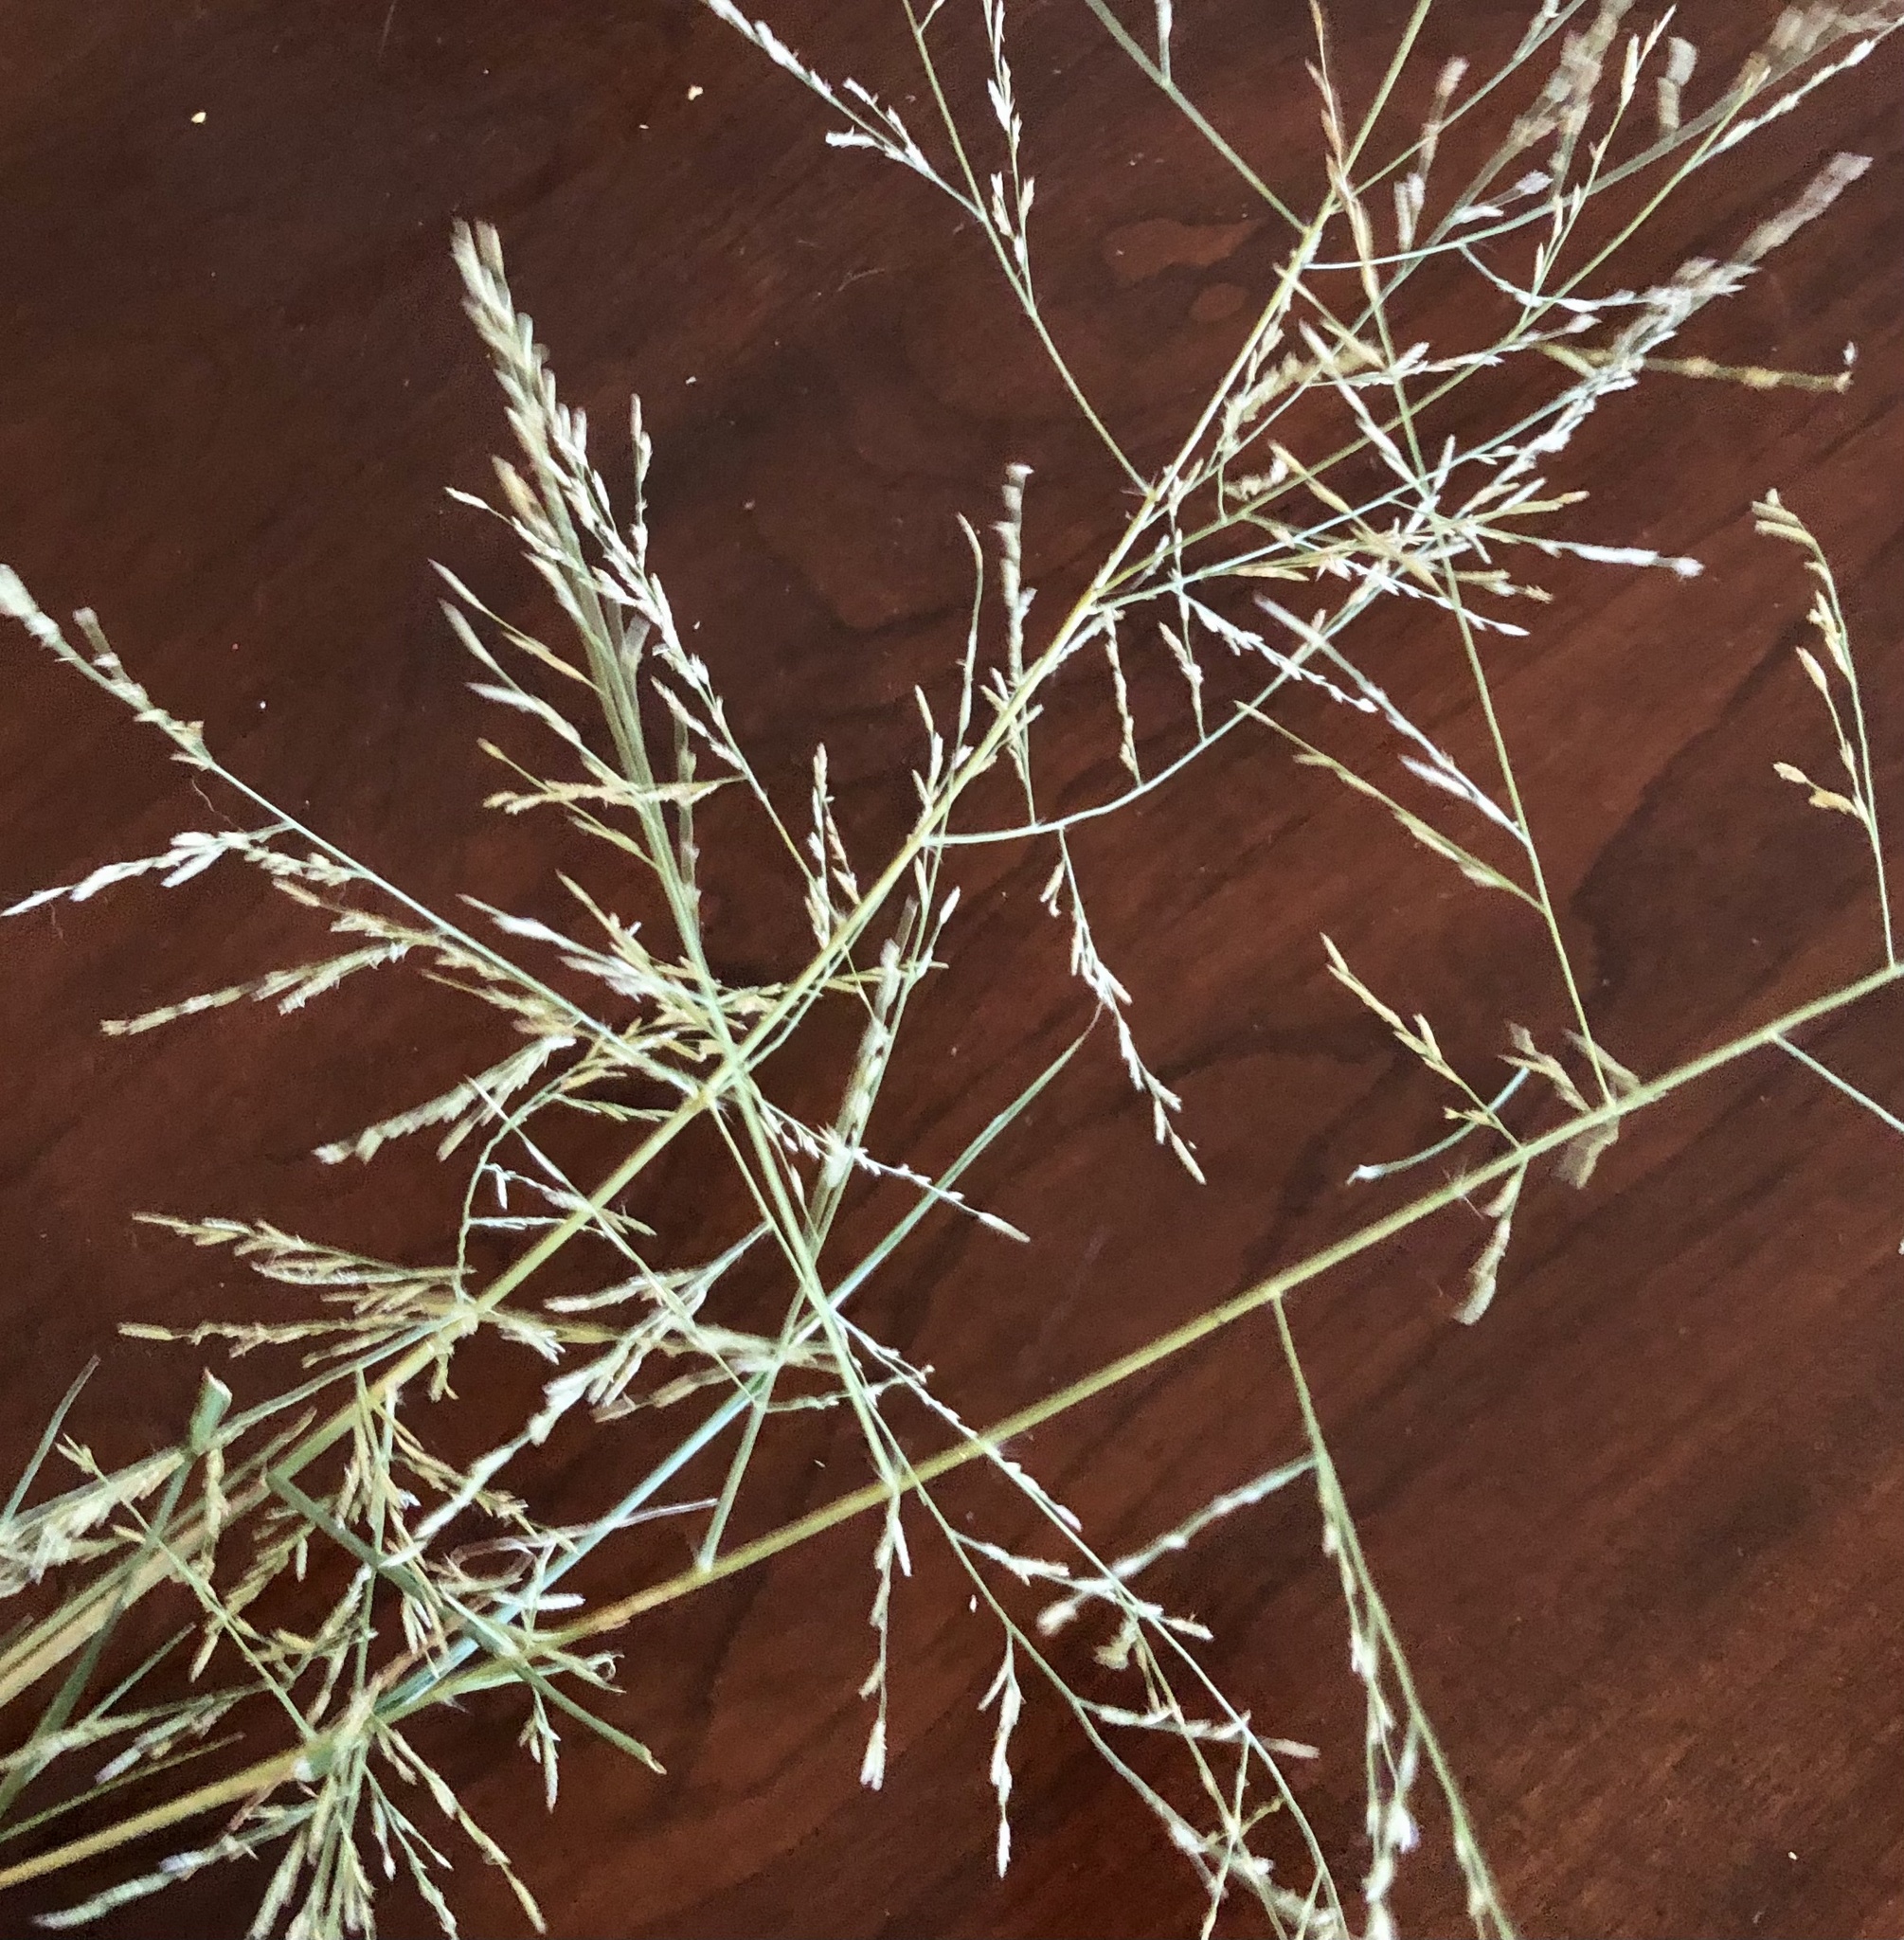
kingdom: Plantae
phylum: Tracheophyta
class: Liliopsida
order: Poales
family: Poaceae
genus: Eragrostis
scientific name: Eragrostis curtipedicellata
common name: Gummy love grass
